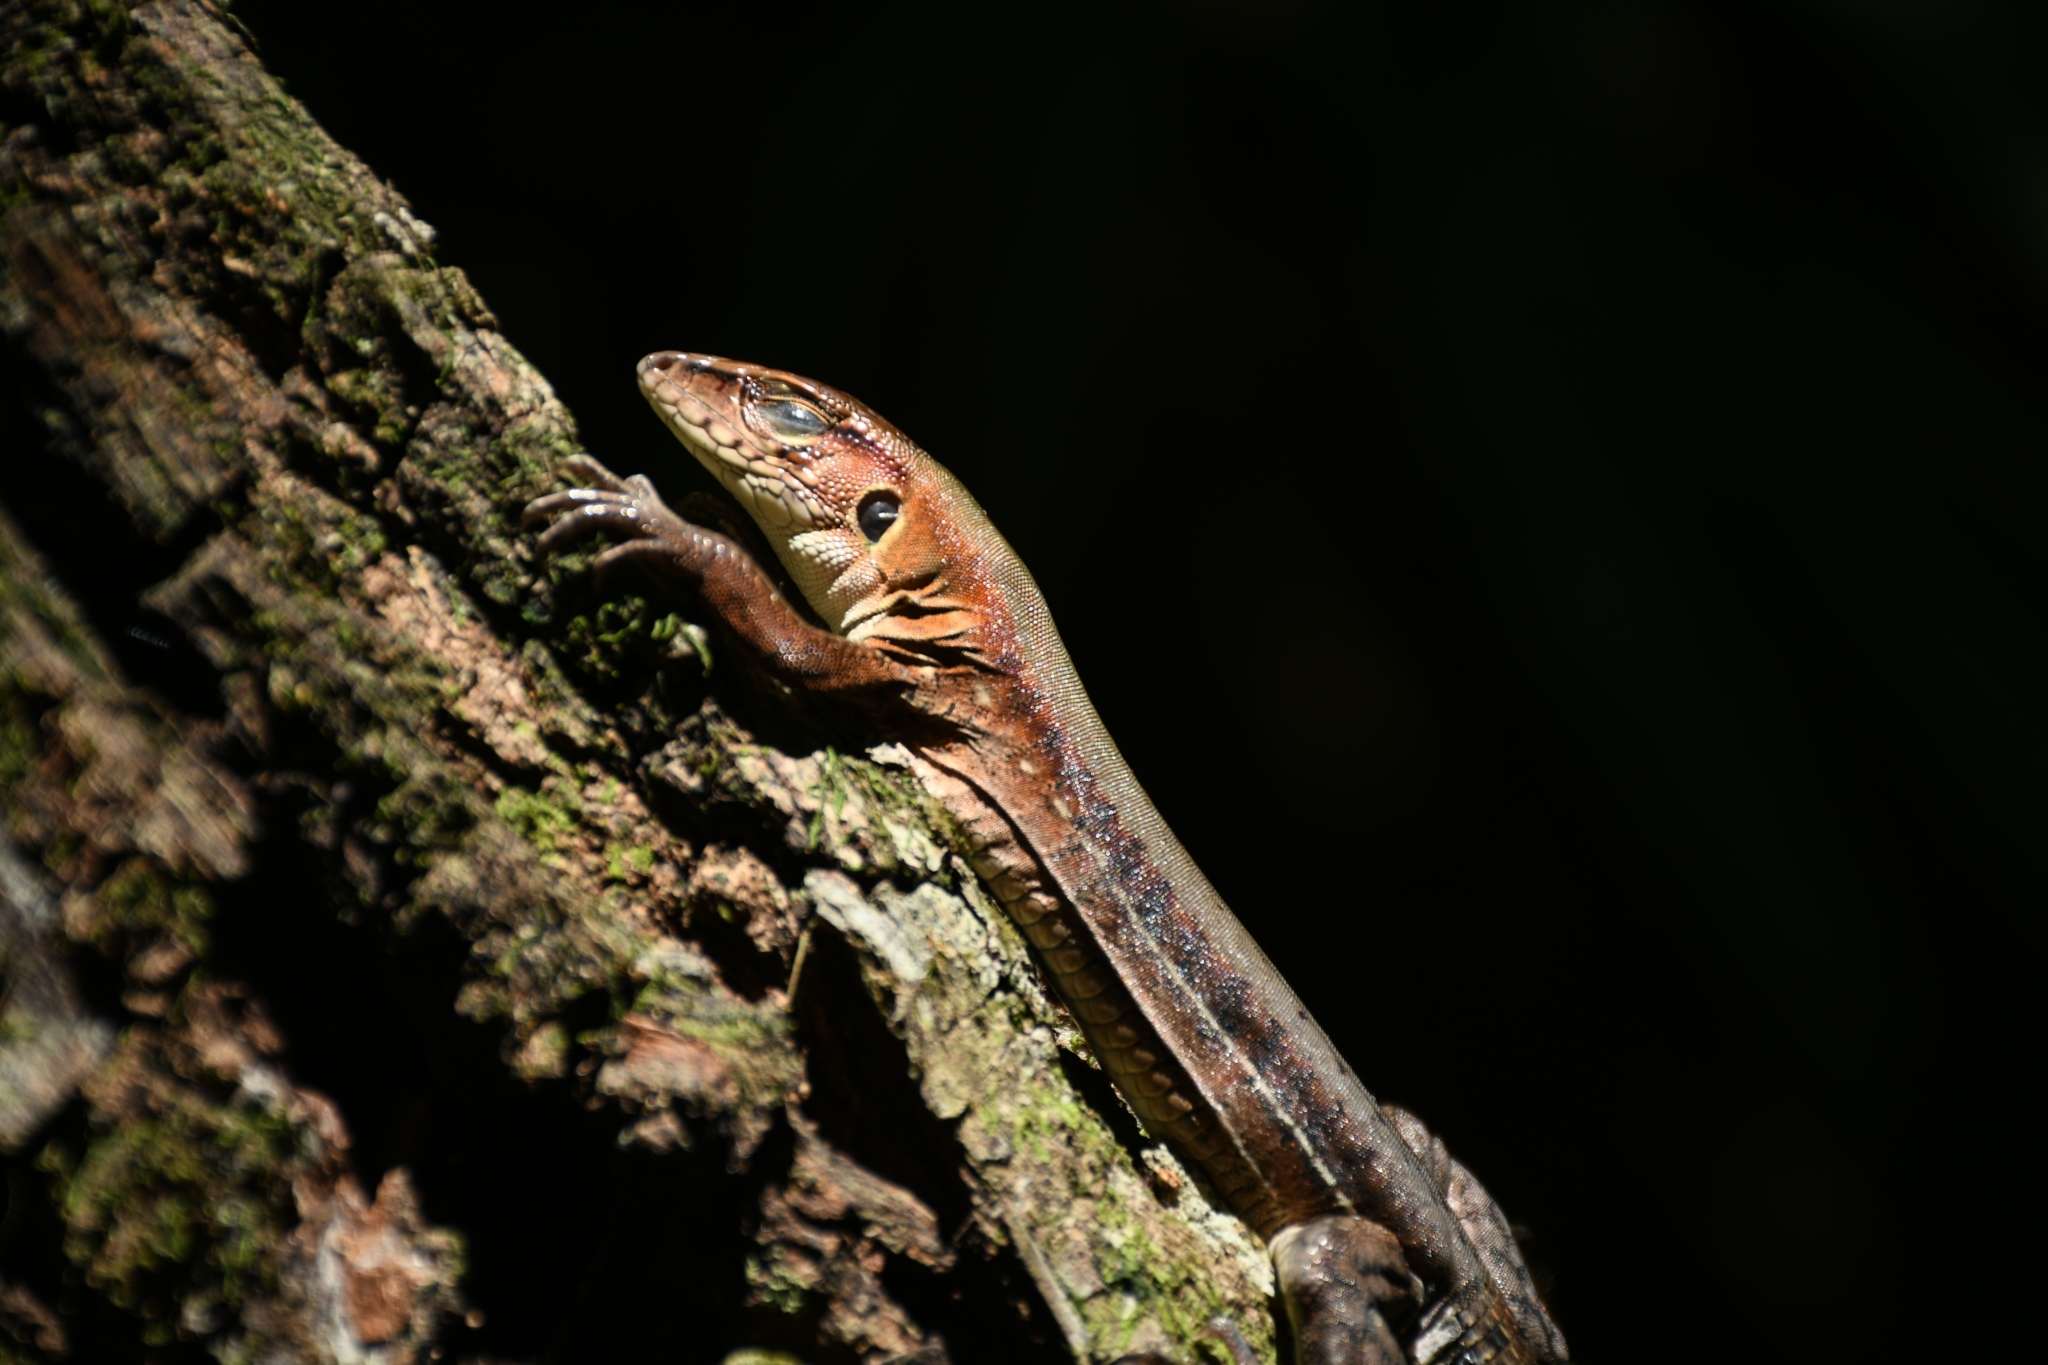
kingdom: Animalia
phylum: Chordata
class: Squamata
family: Teiidae
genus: Holcosus
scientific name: Holcosus undulatus
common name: Rainbow ameiva
